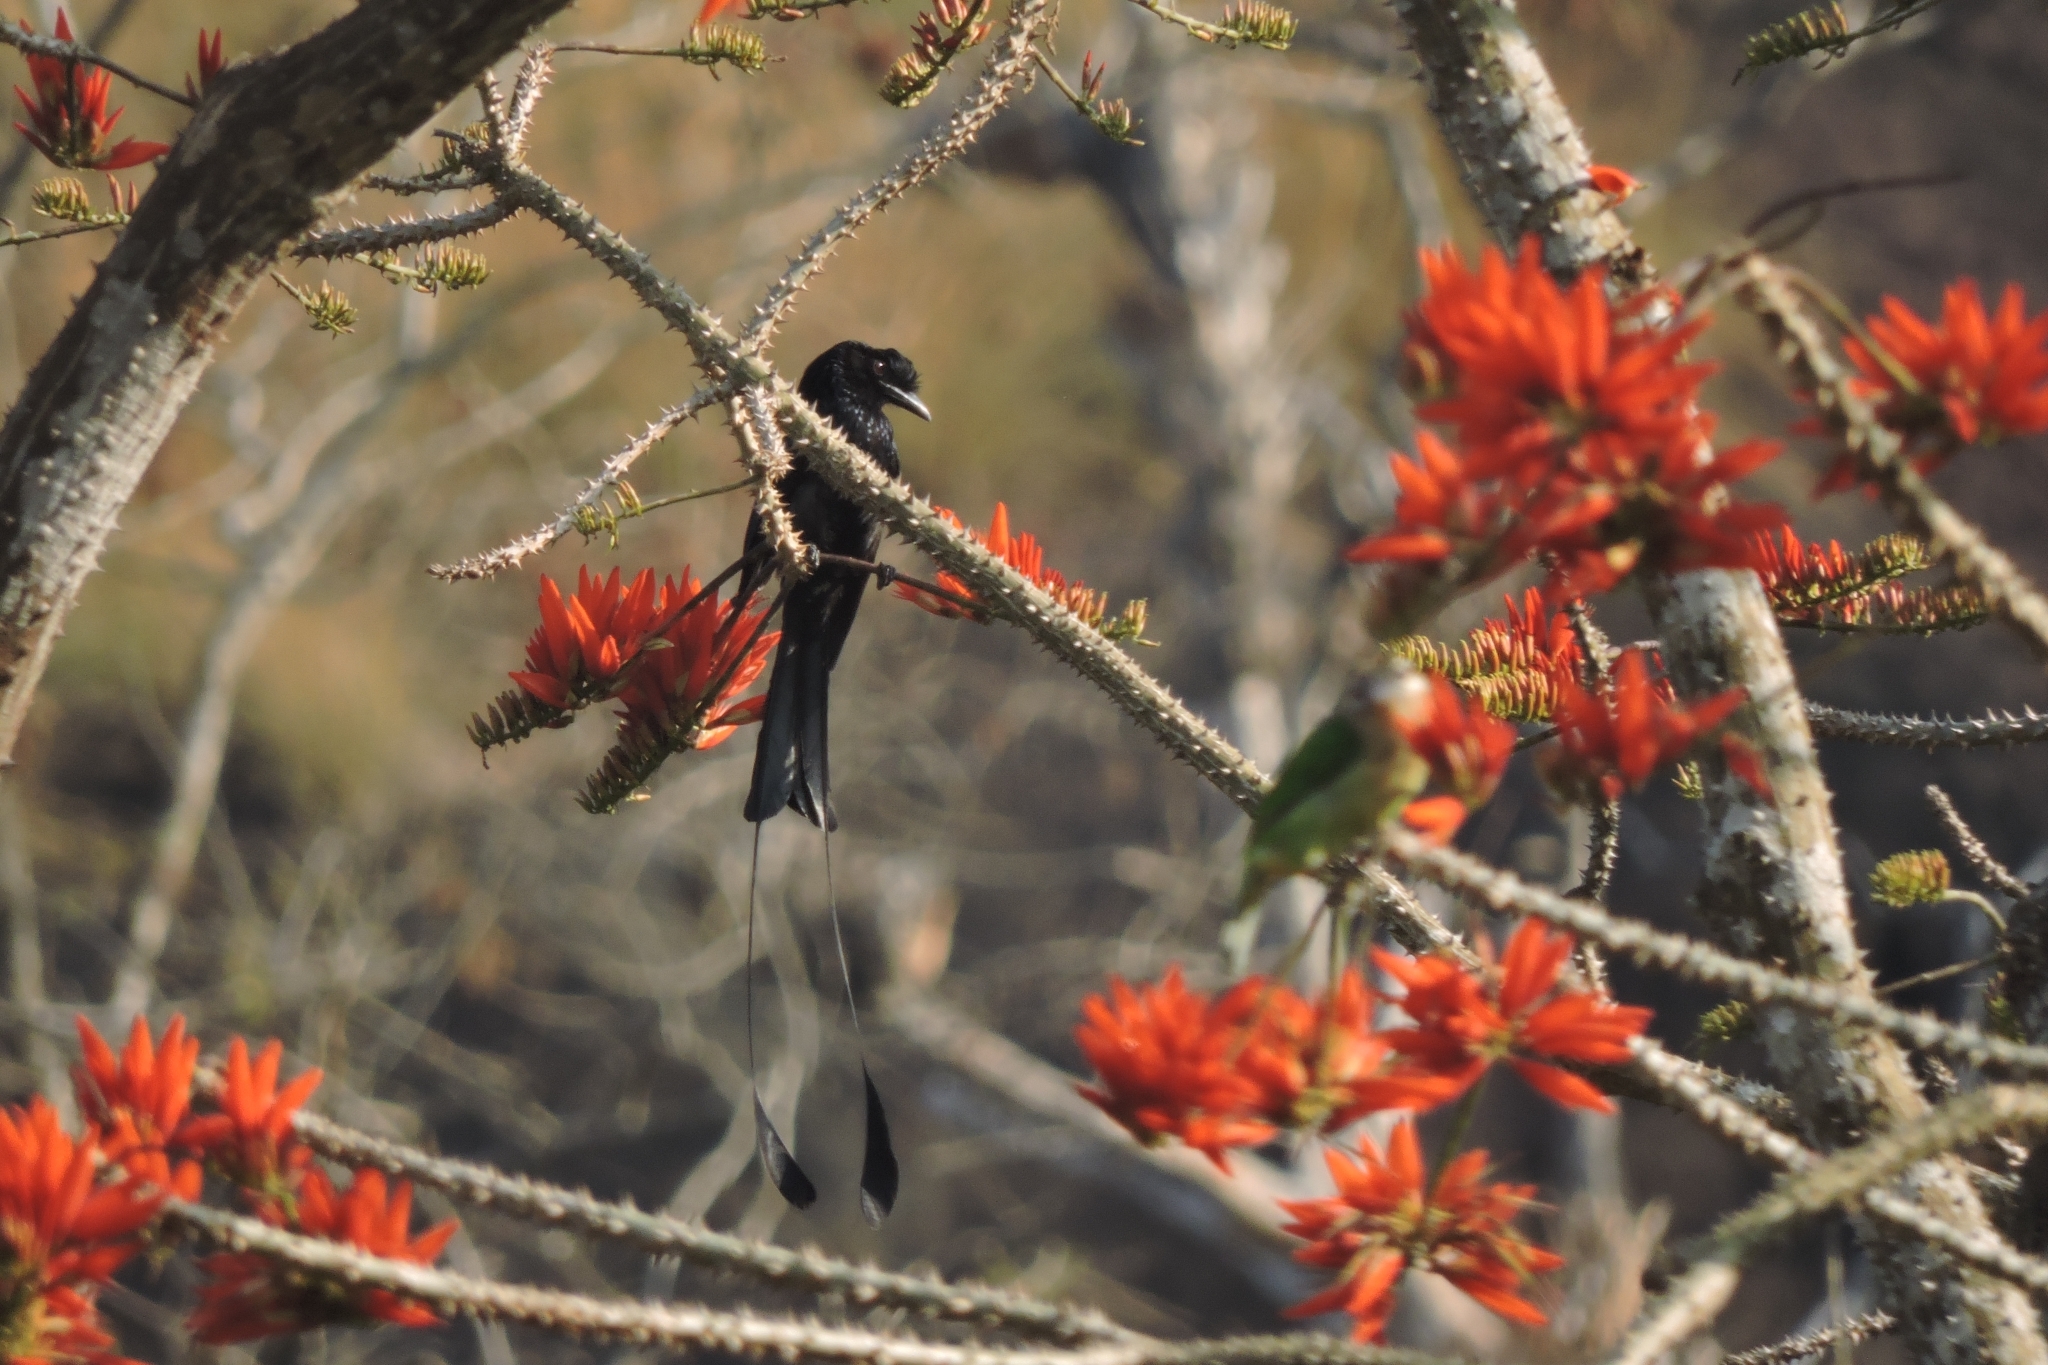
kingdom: Animalia
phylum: Chordata
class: Aves
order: Passeriformes
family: Dicruridae
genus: Dicrurus
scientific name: Dicrurus paradiseus
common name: Greater racket-tailed drongo
